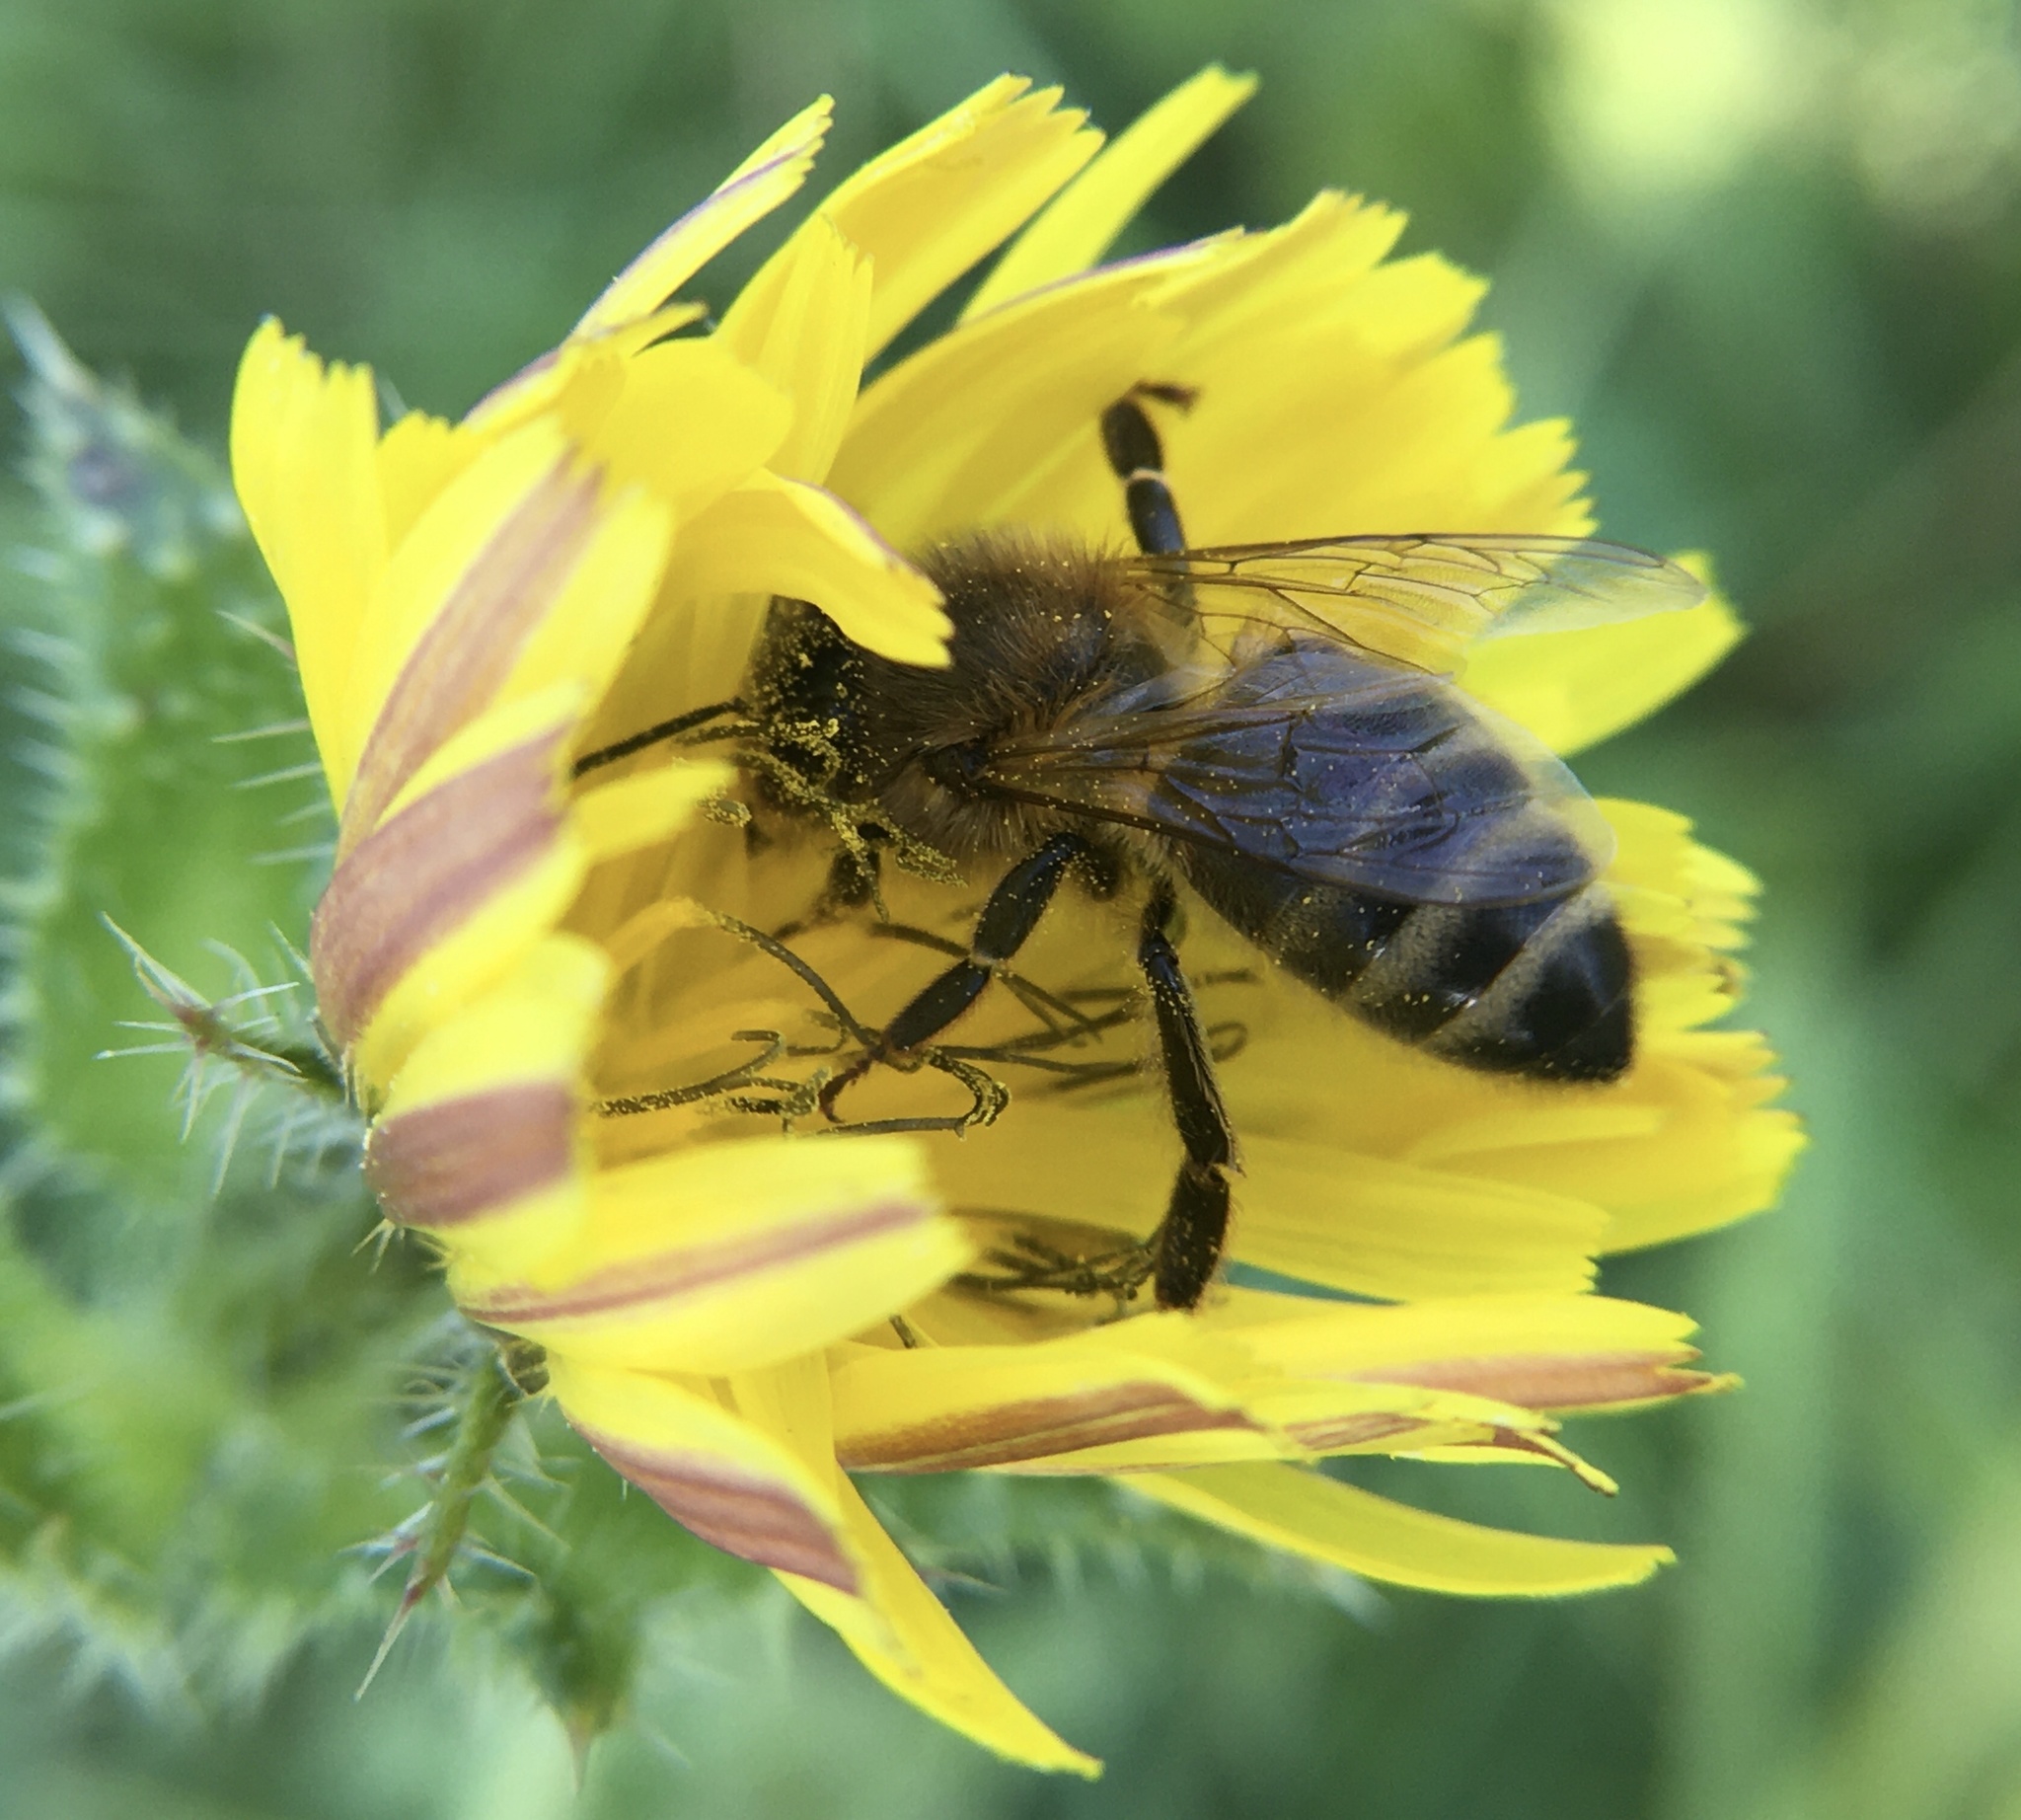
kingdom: Animalia
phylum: Arthropoda
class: Insecta
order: Hymenoptera
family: Apidae
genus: Apis
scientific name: Apis mellifera
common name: Honey bee
